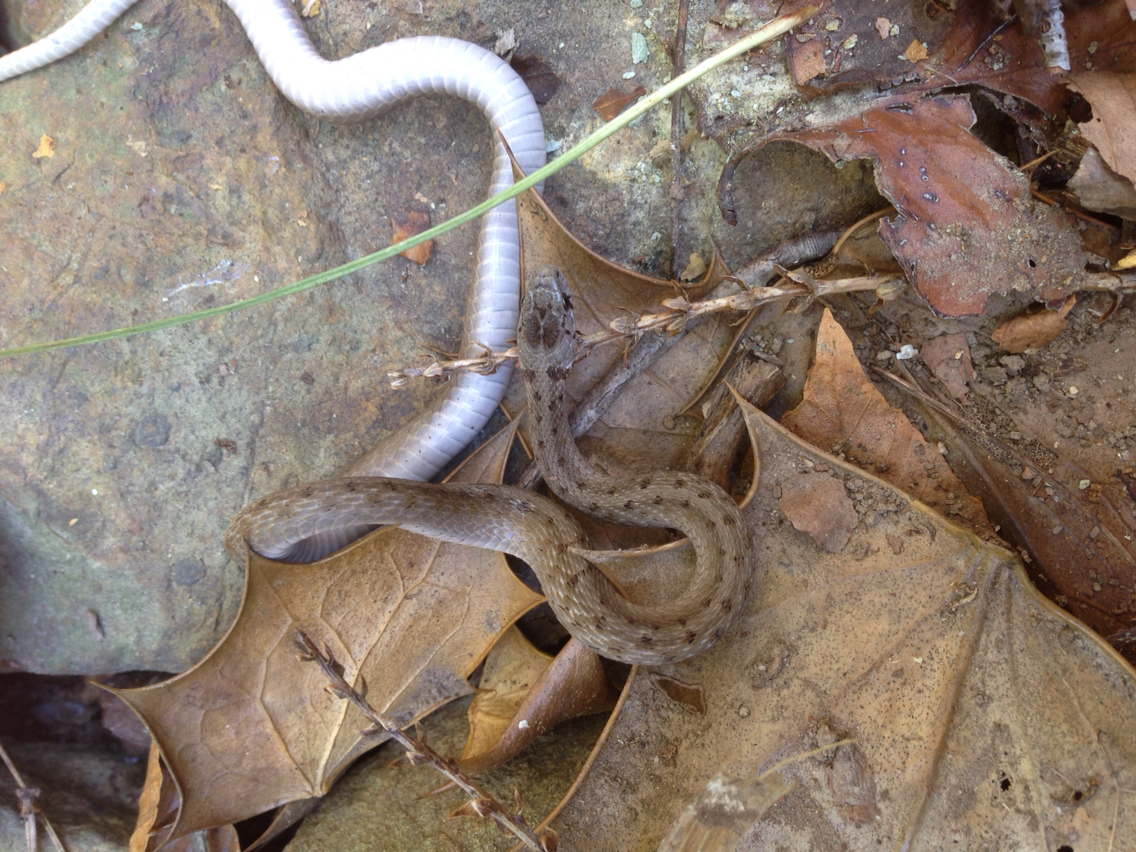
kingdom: Animalia
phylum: Chordata
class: Squamata
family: Colubridae
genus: Storeria
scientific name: Storeria dekayi
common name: (dekay’s) brown snake
